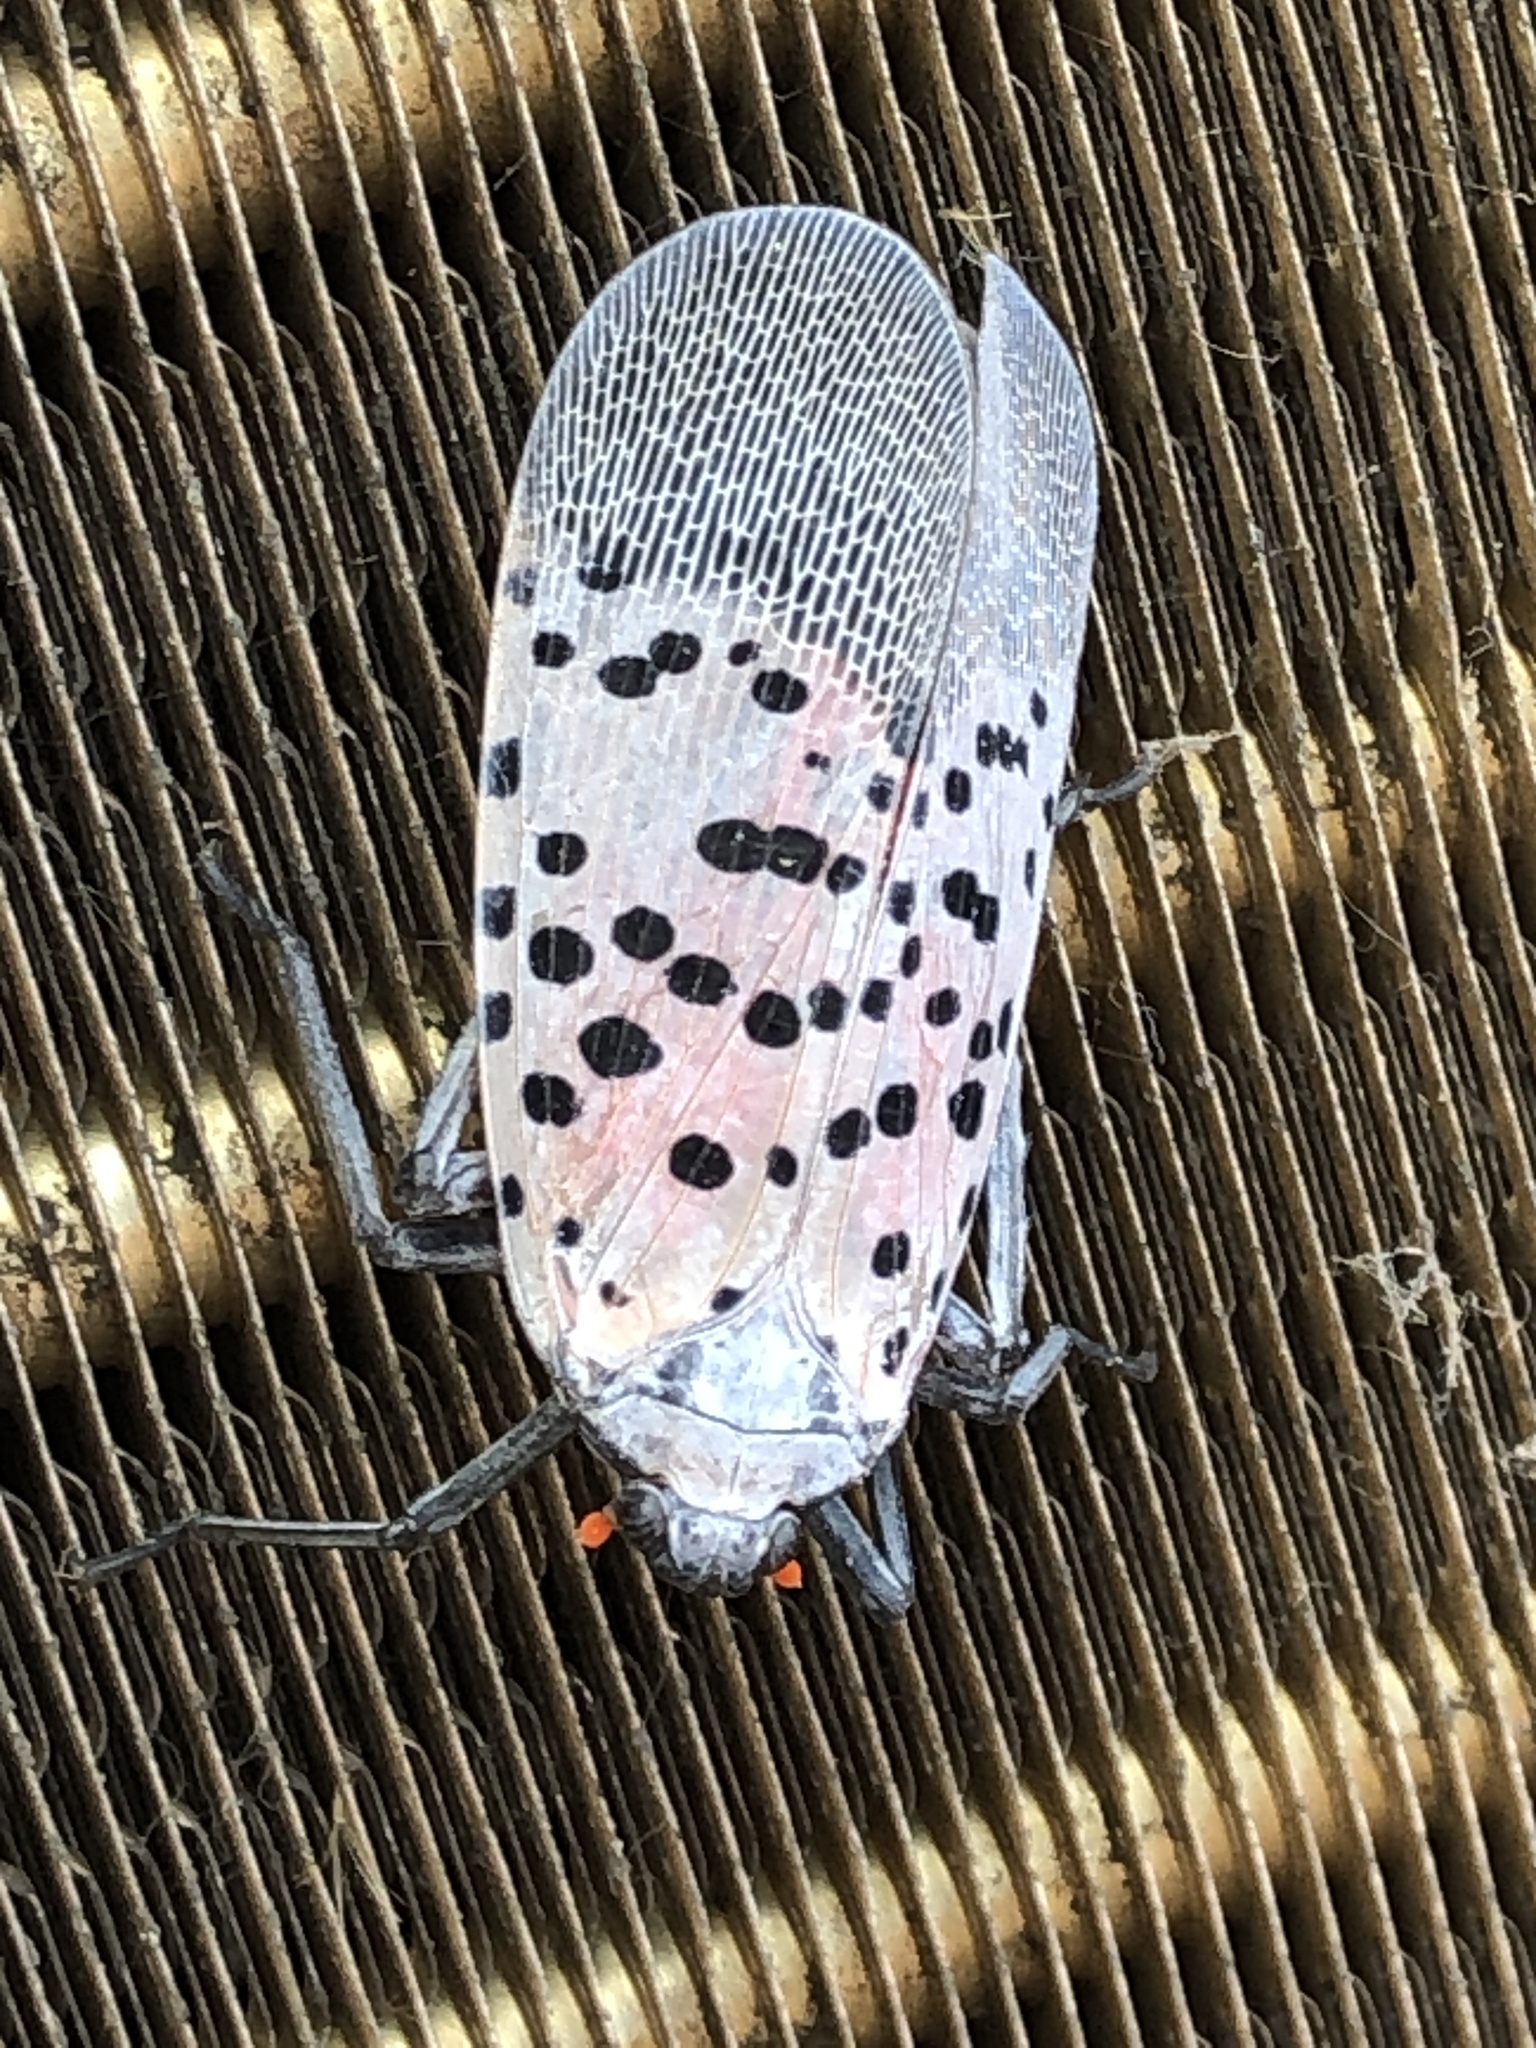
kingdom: Animalia
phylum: Arthropoda
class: Insecta
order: Hemiptera
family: Fulgoridae
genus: Lycorma
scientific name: Lycorma delicatula
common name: Spotted lanternfly
